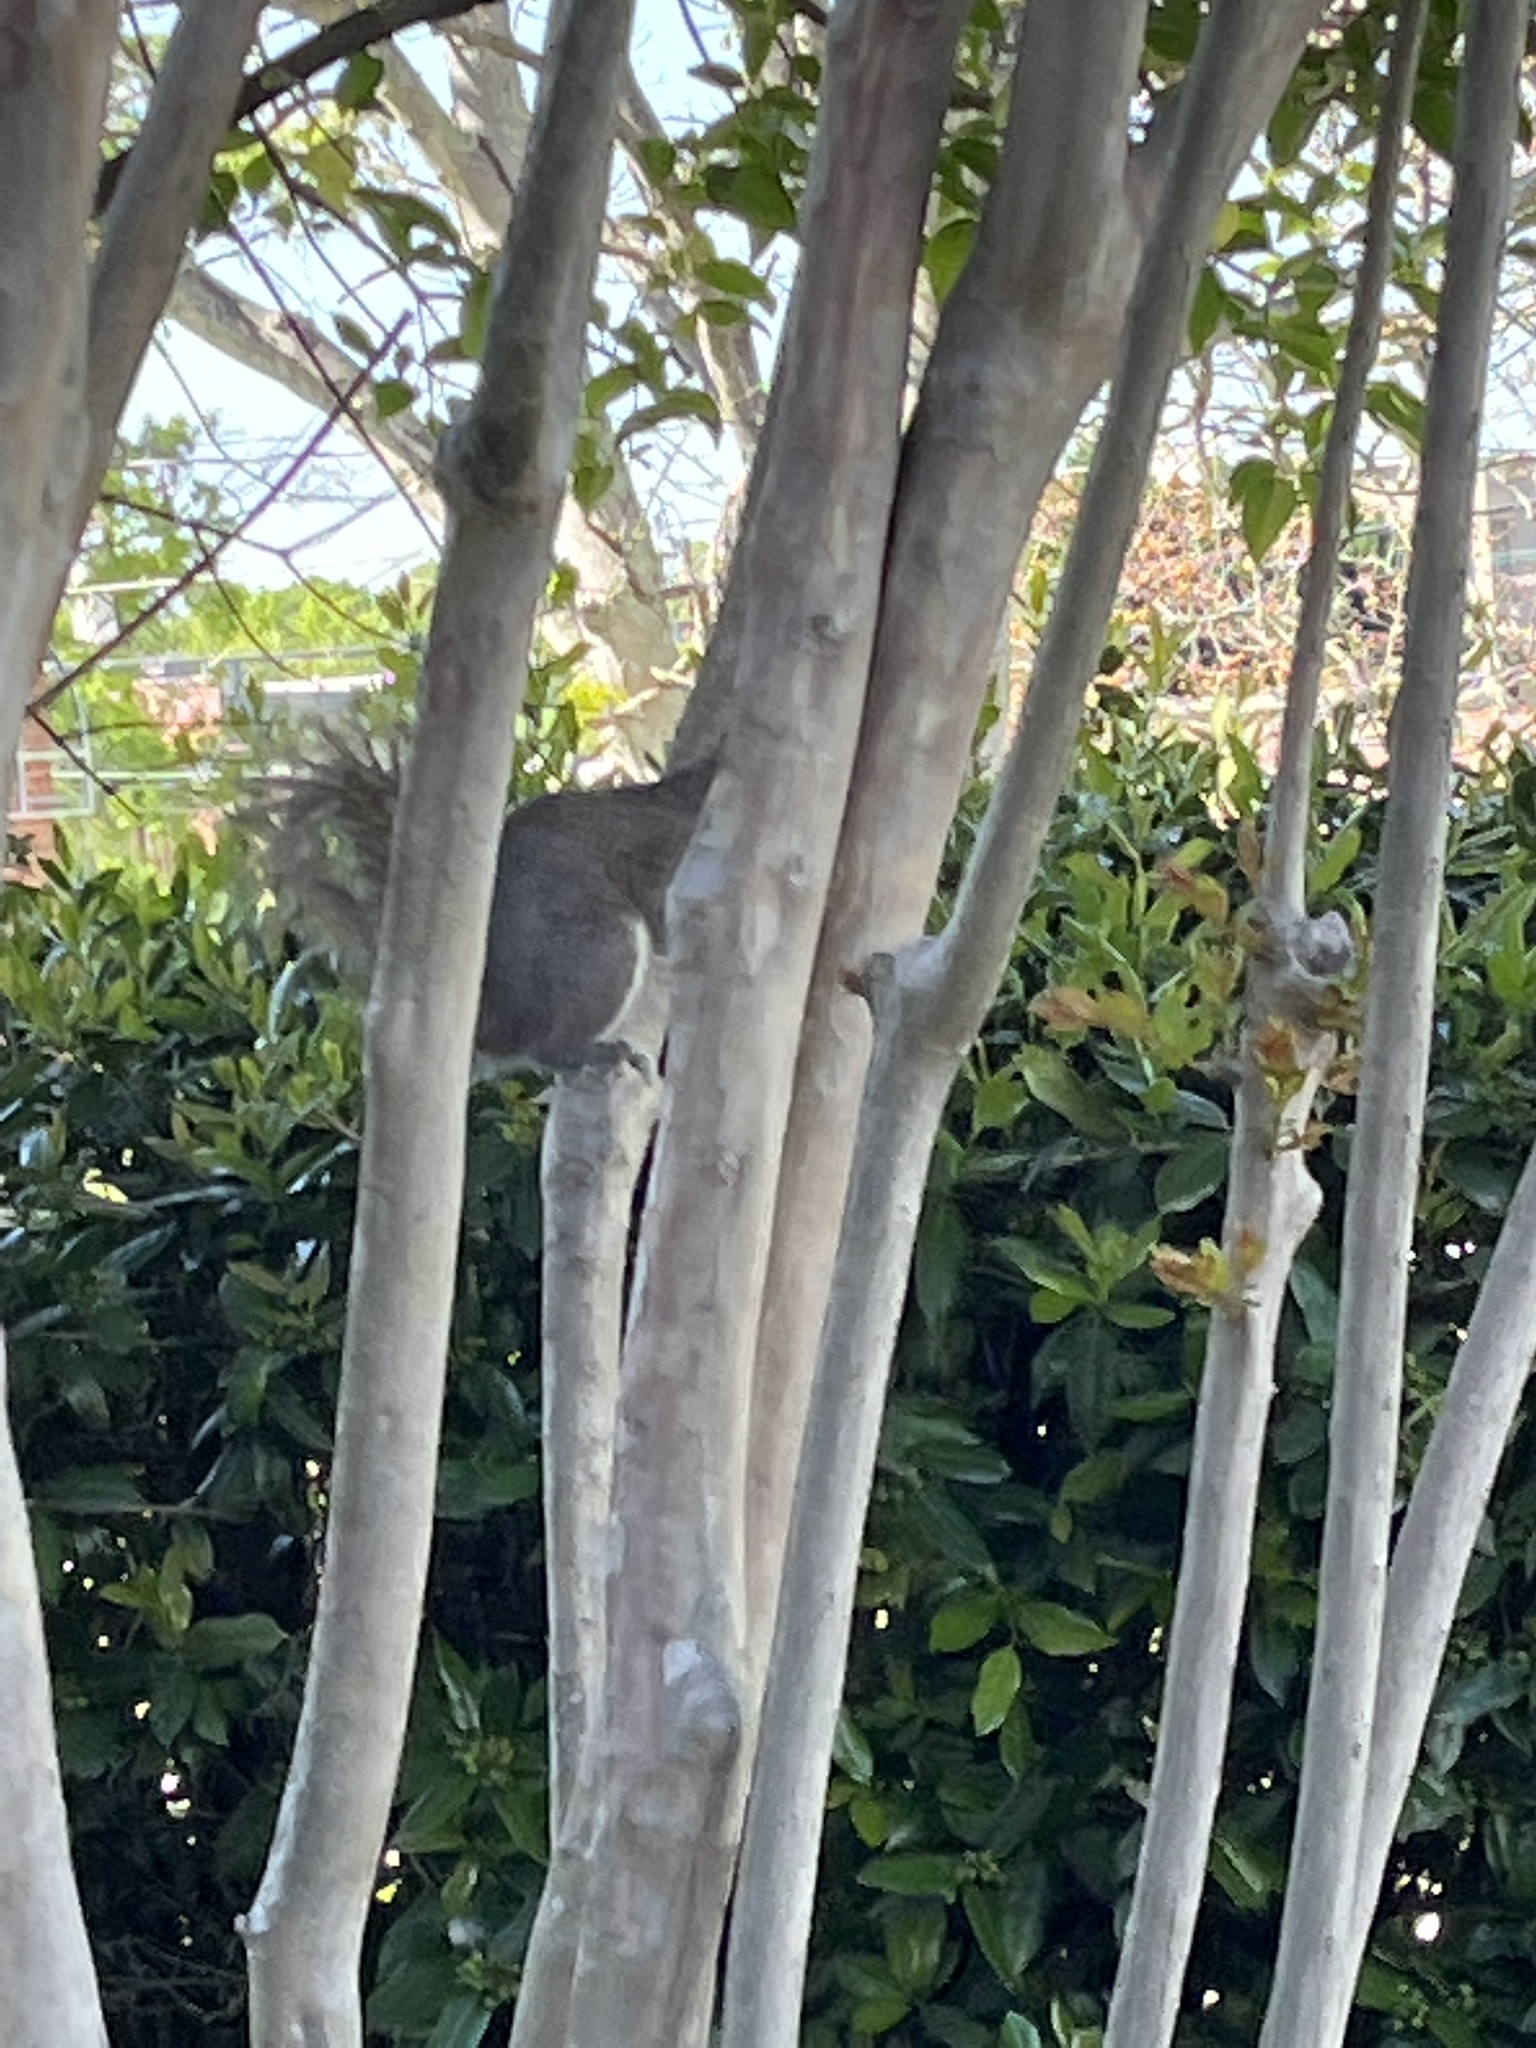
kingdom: Animalia
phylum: Chordata
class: Mammalia
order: Rodentia
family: Sciuridae
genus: Sciurus
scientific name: Sciurus carolinensis
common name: Eastern gray squirrel
